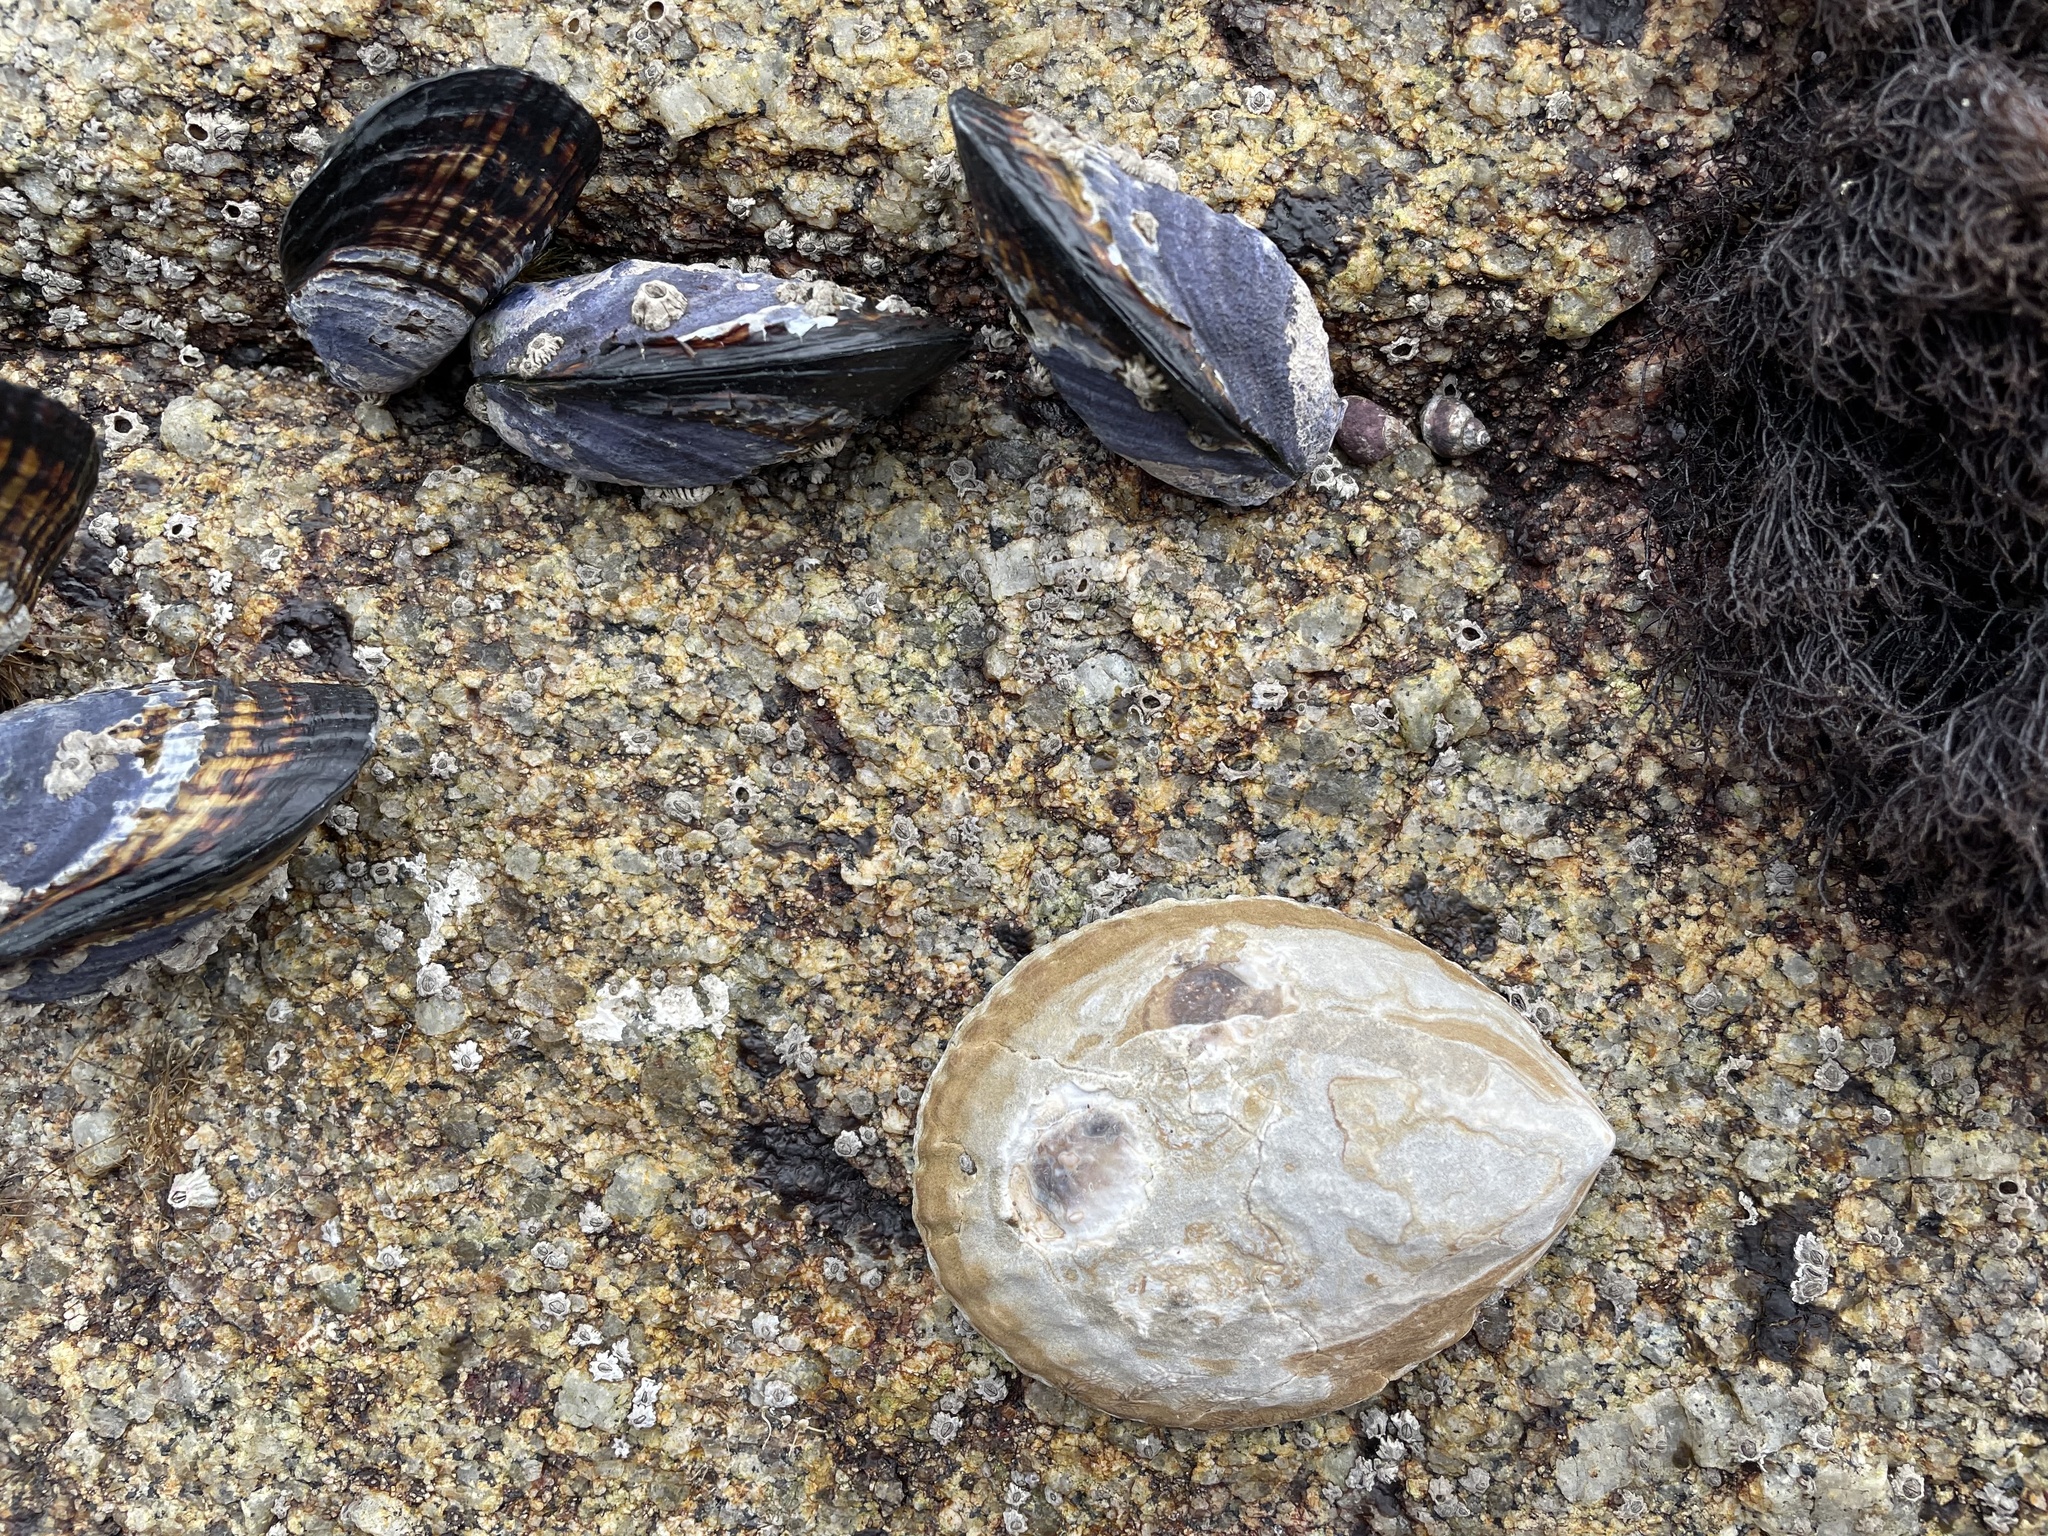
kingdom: Animalia
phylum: Mollusca
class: Gastropoda
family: Lottiidae
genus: Lottia
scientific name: Lottia gigantea
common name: Owl limpet
